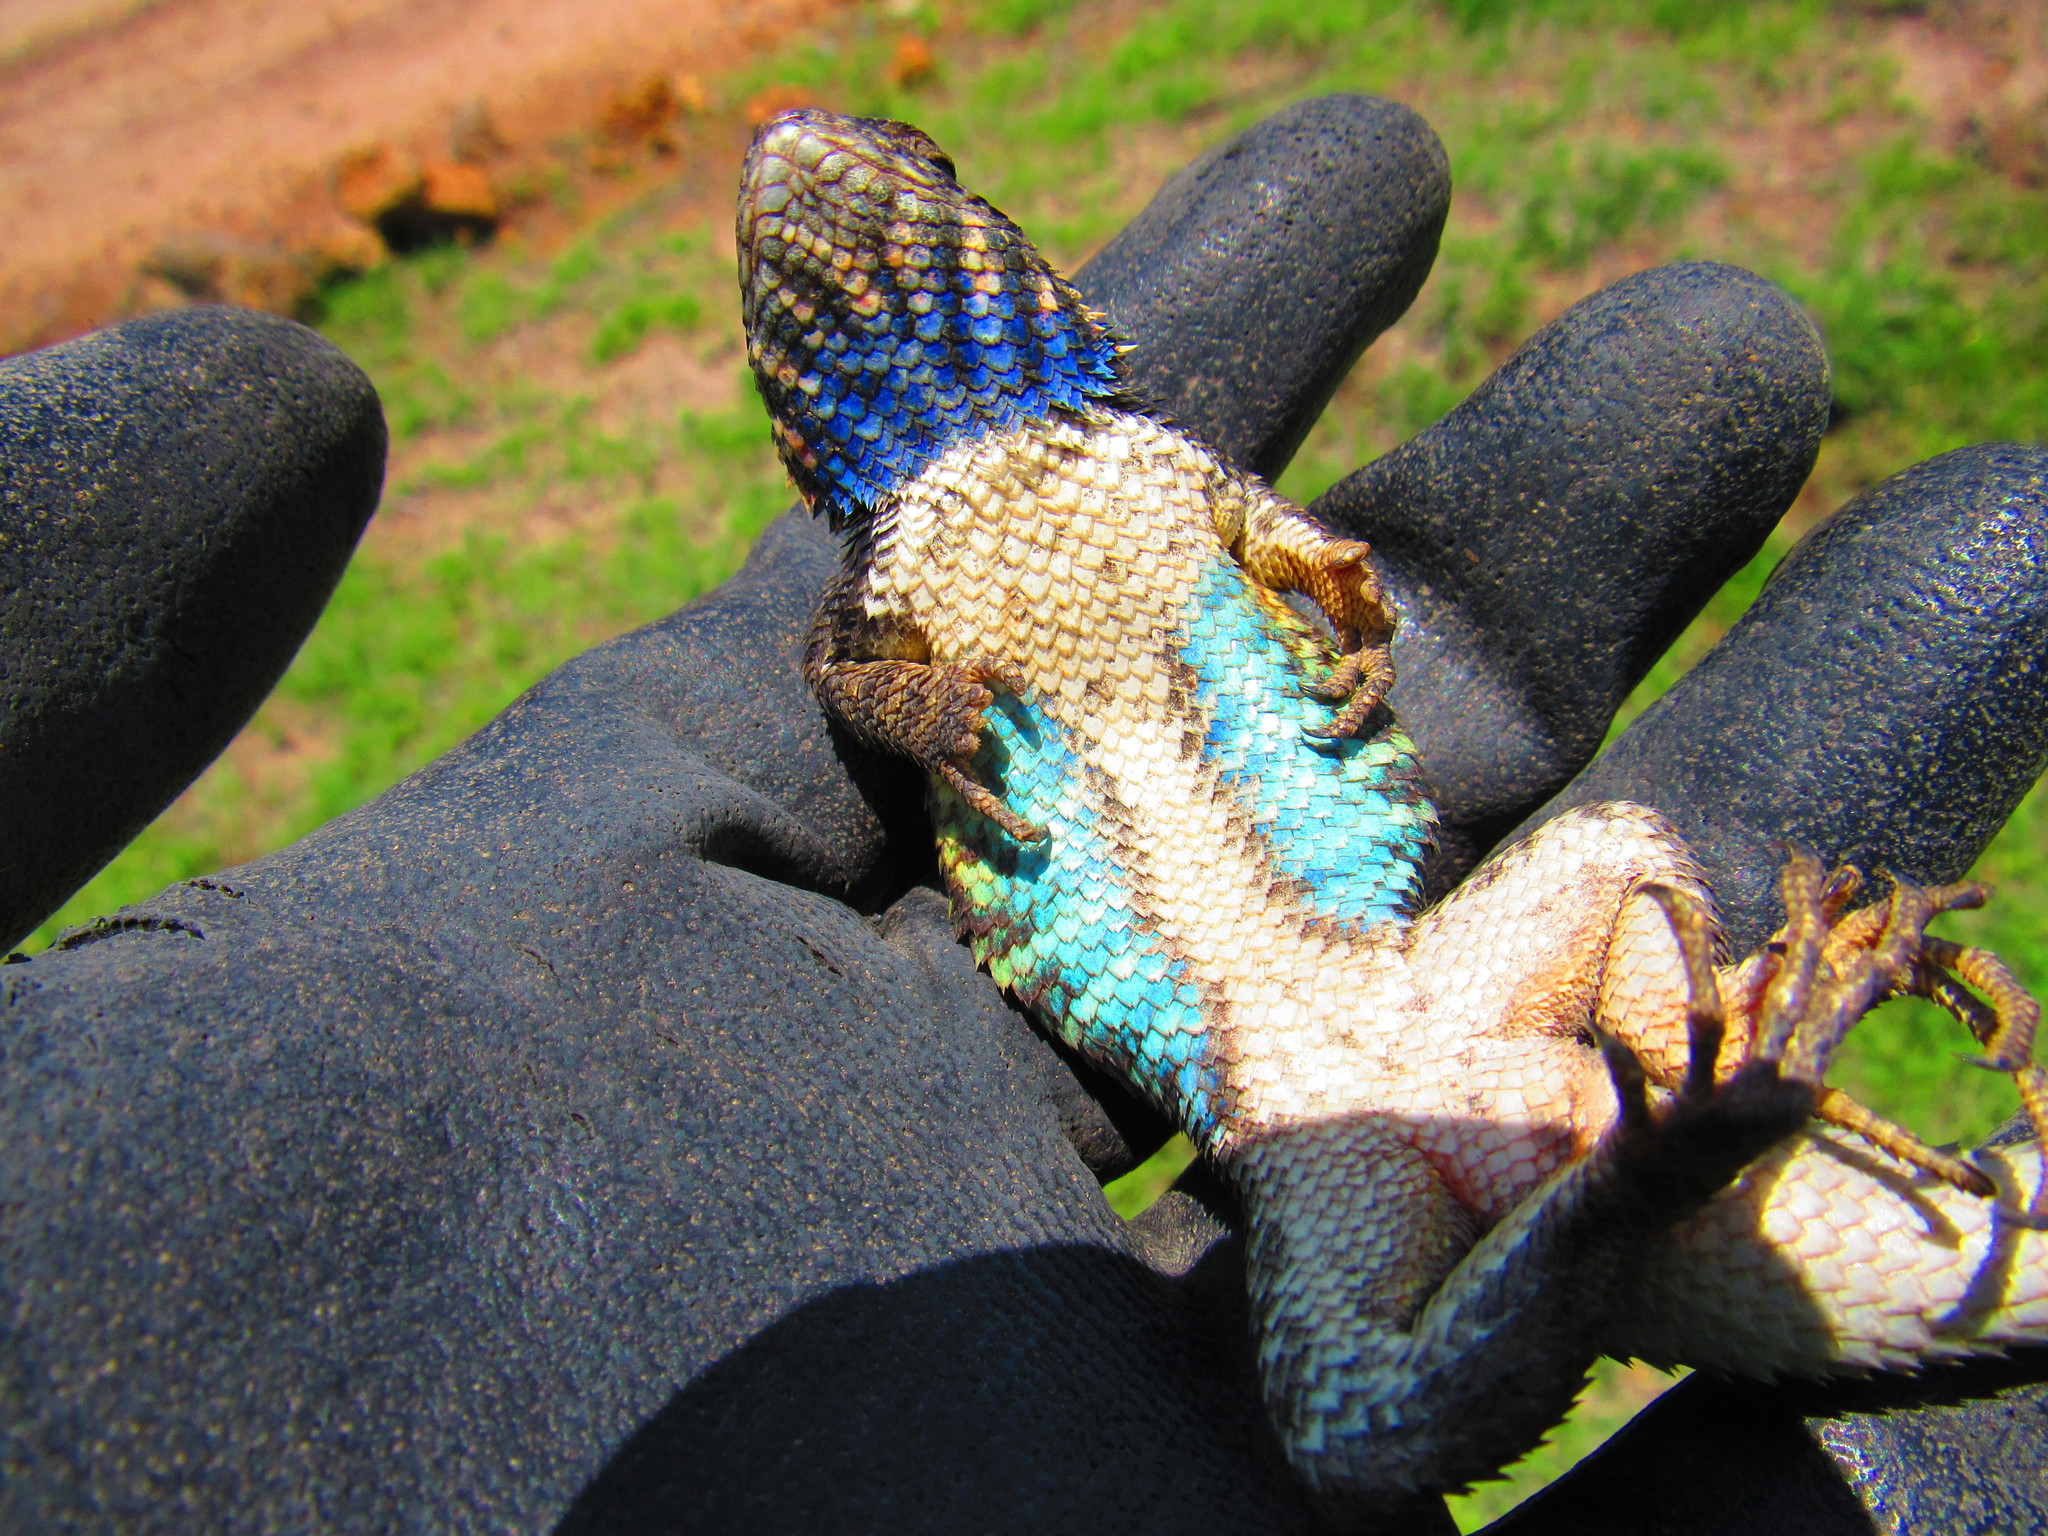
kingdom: Animalia
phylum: Chordata
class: Squamata
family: Phrynosomatidae
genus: Sceloporus
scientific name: Sceloporus spinosus
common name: Blue-spotted spiny lizard [caeruleopunctatus]
